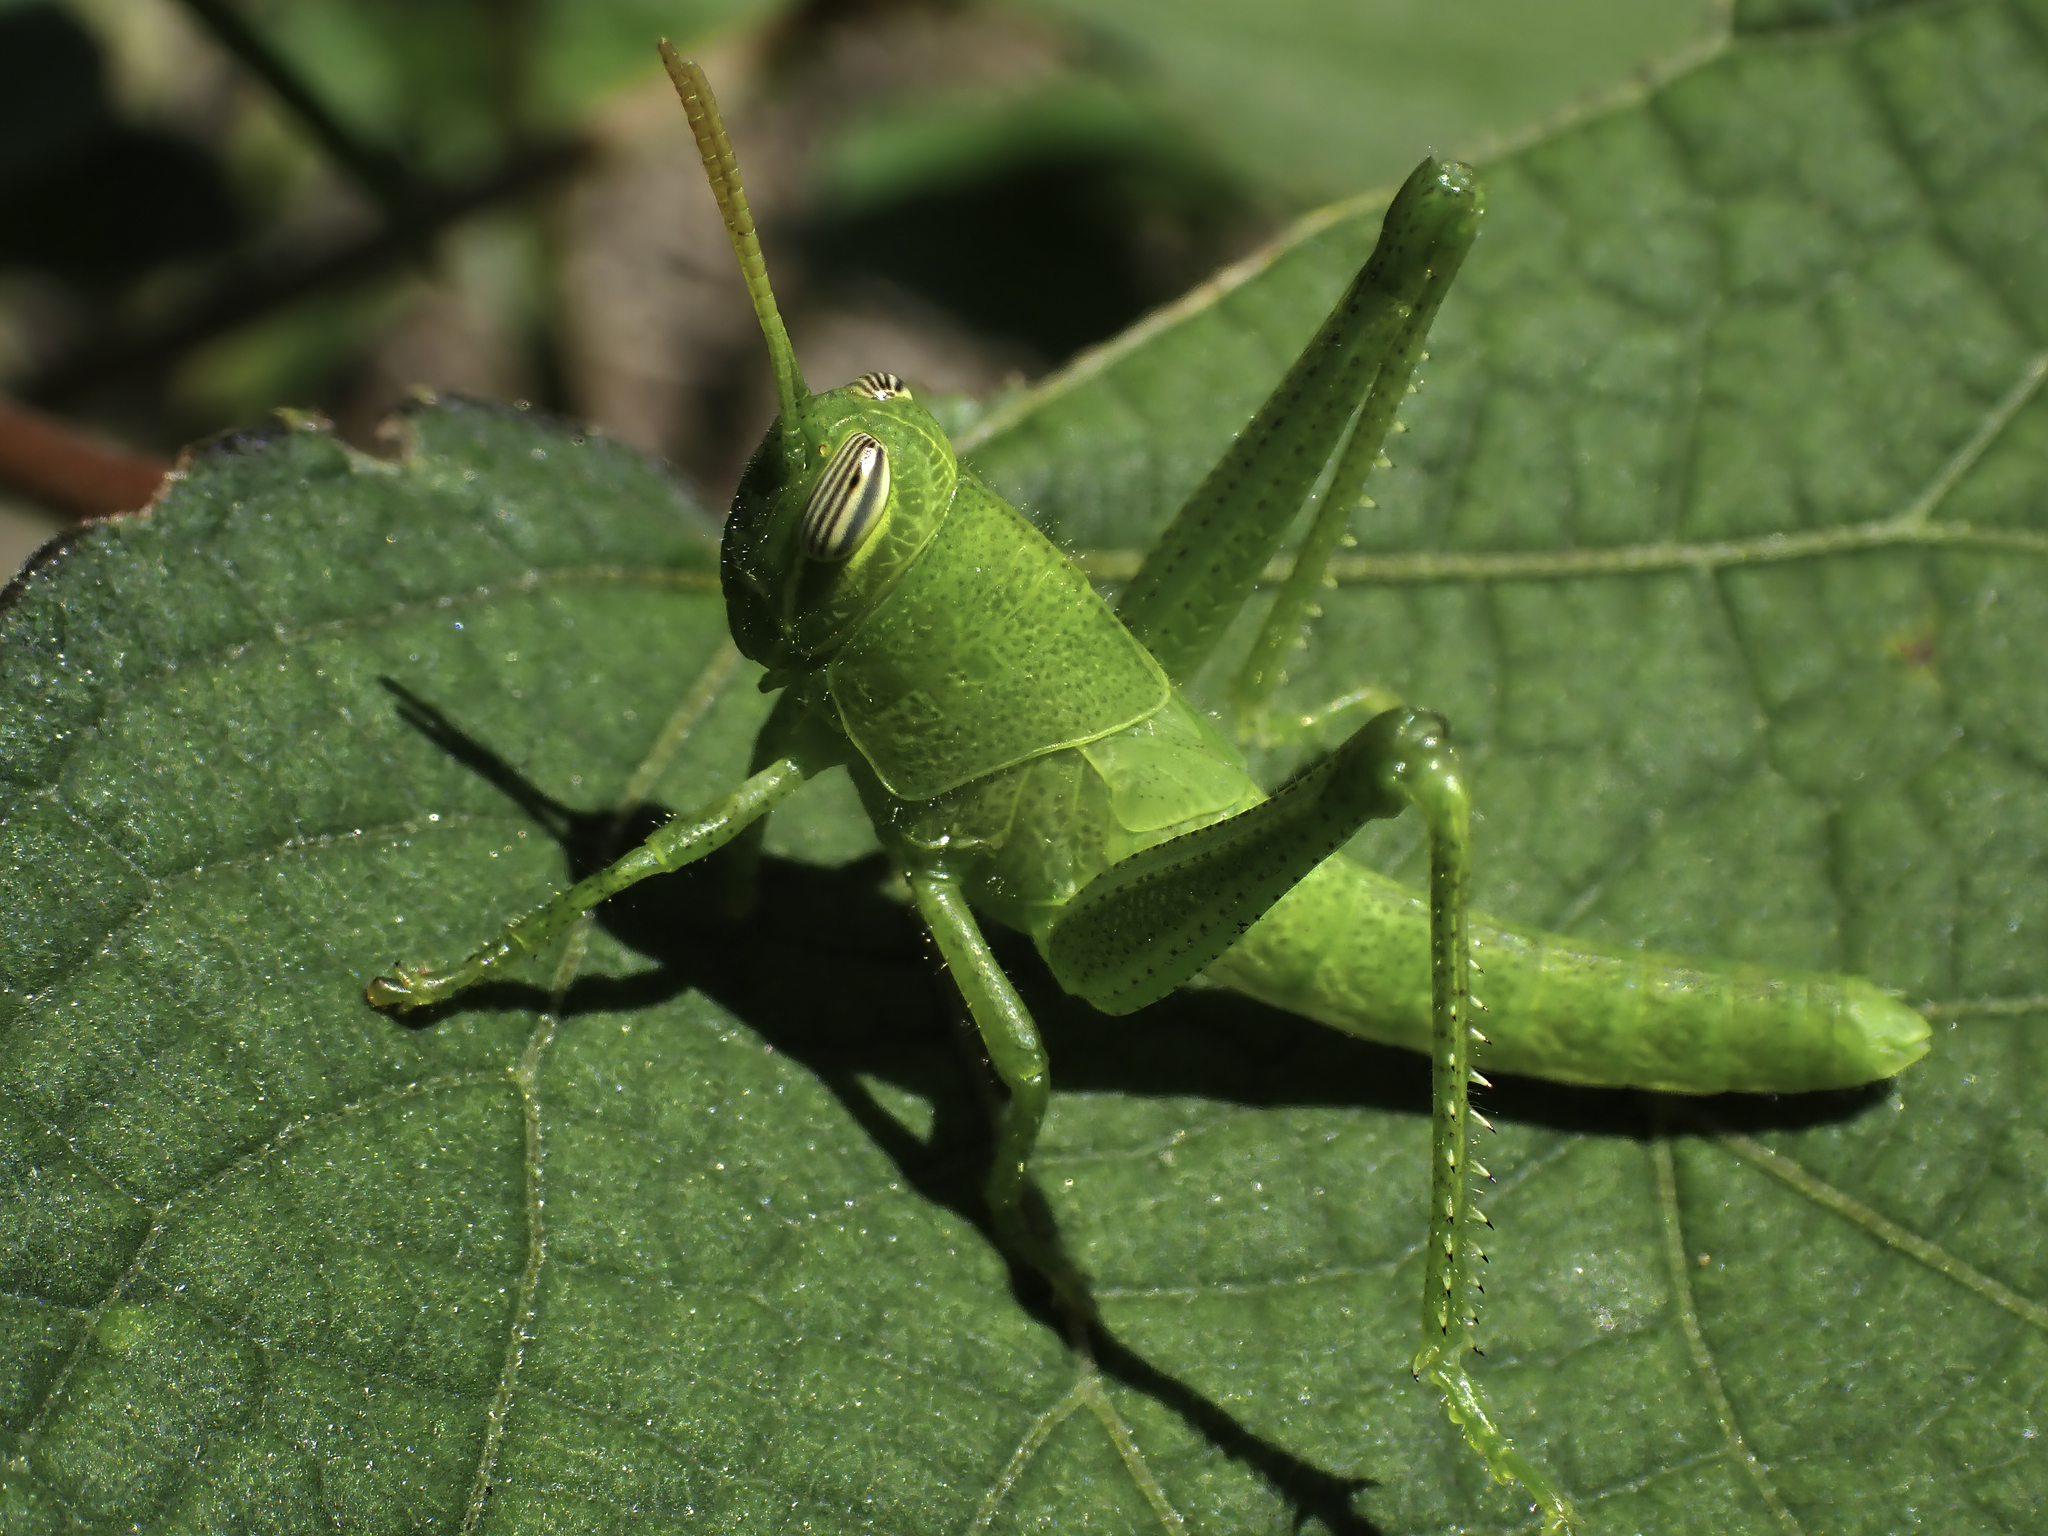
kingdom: Animalia
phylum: Arthropoda
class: Insecta
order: Orthoptera
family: Acrididae
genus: Schistocerca
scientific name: Schistocerca serialis
